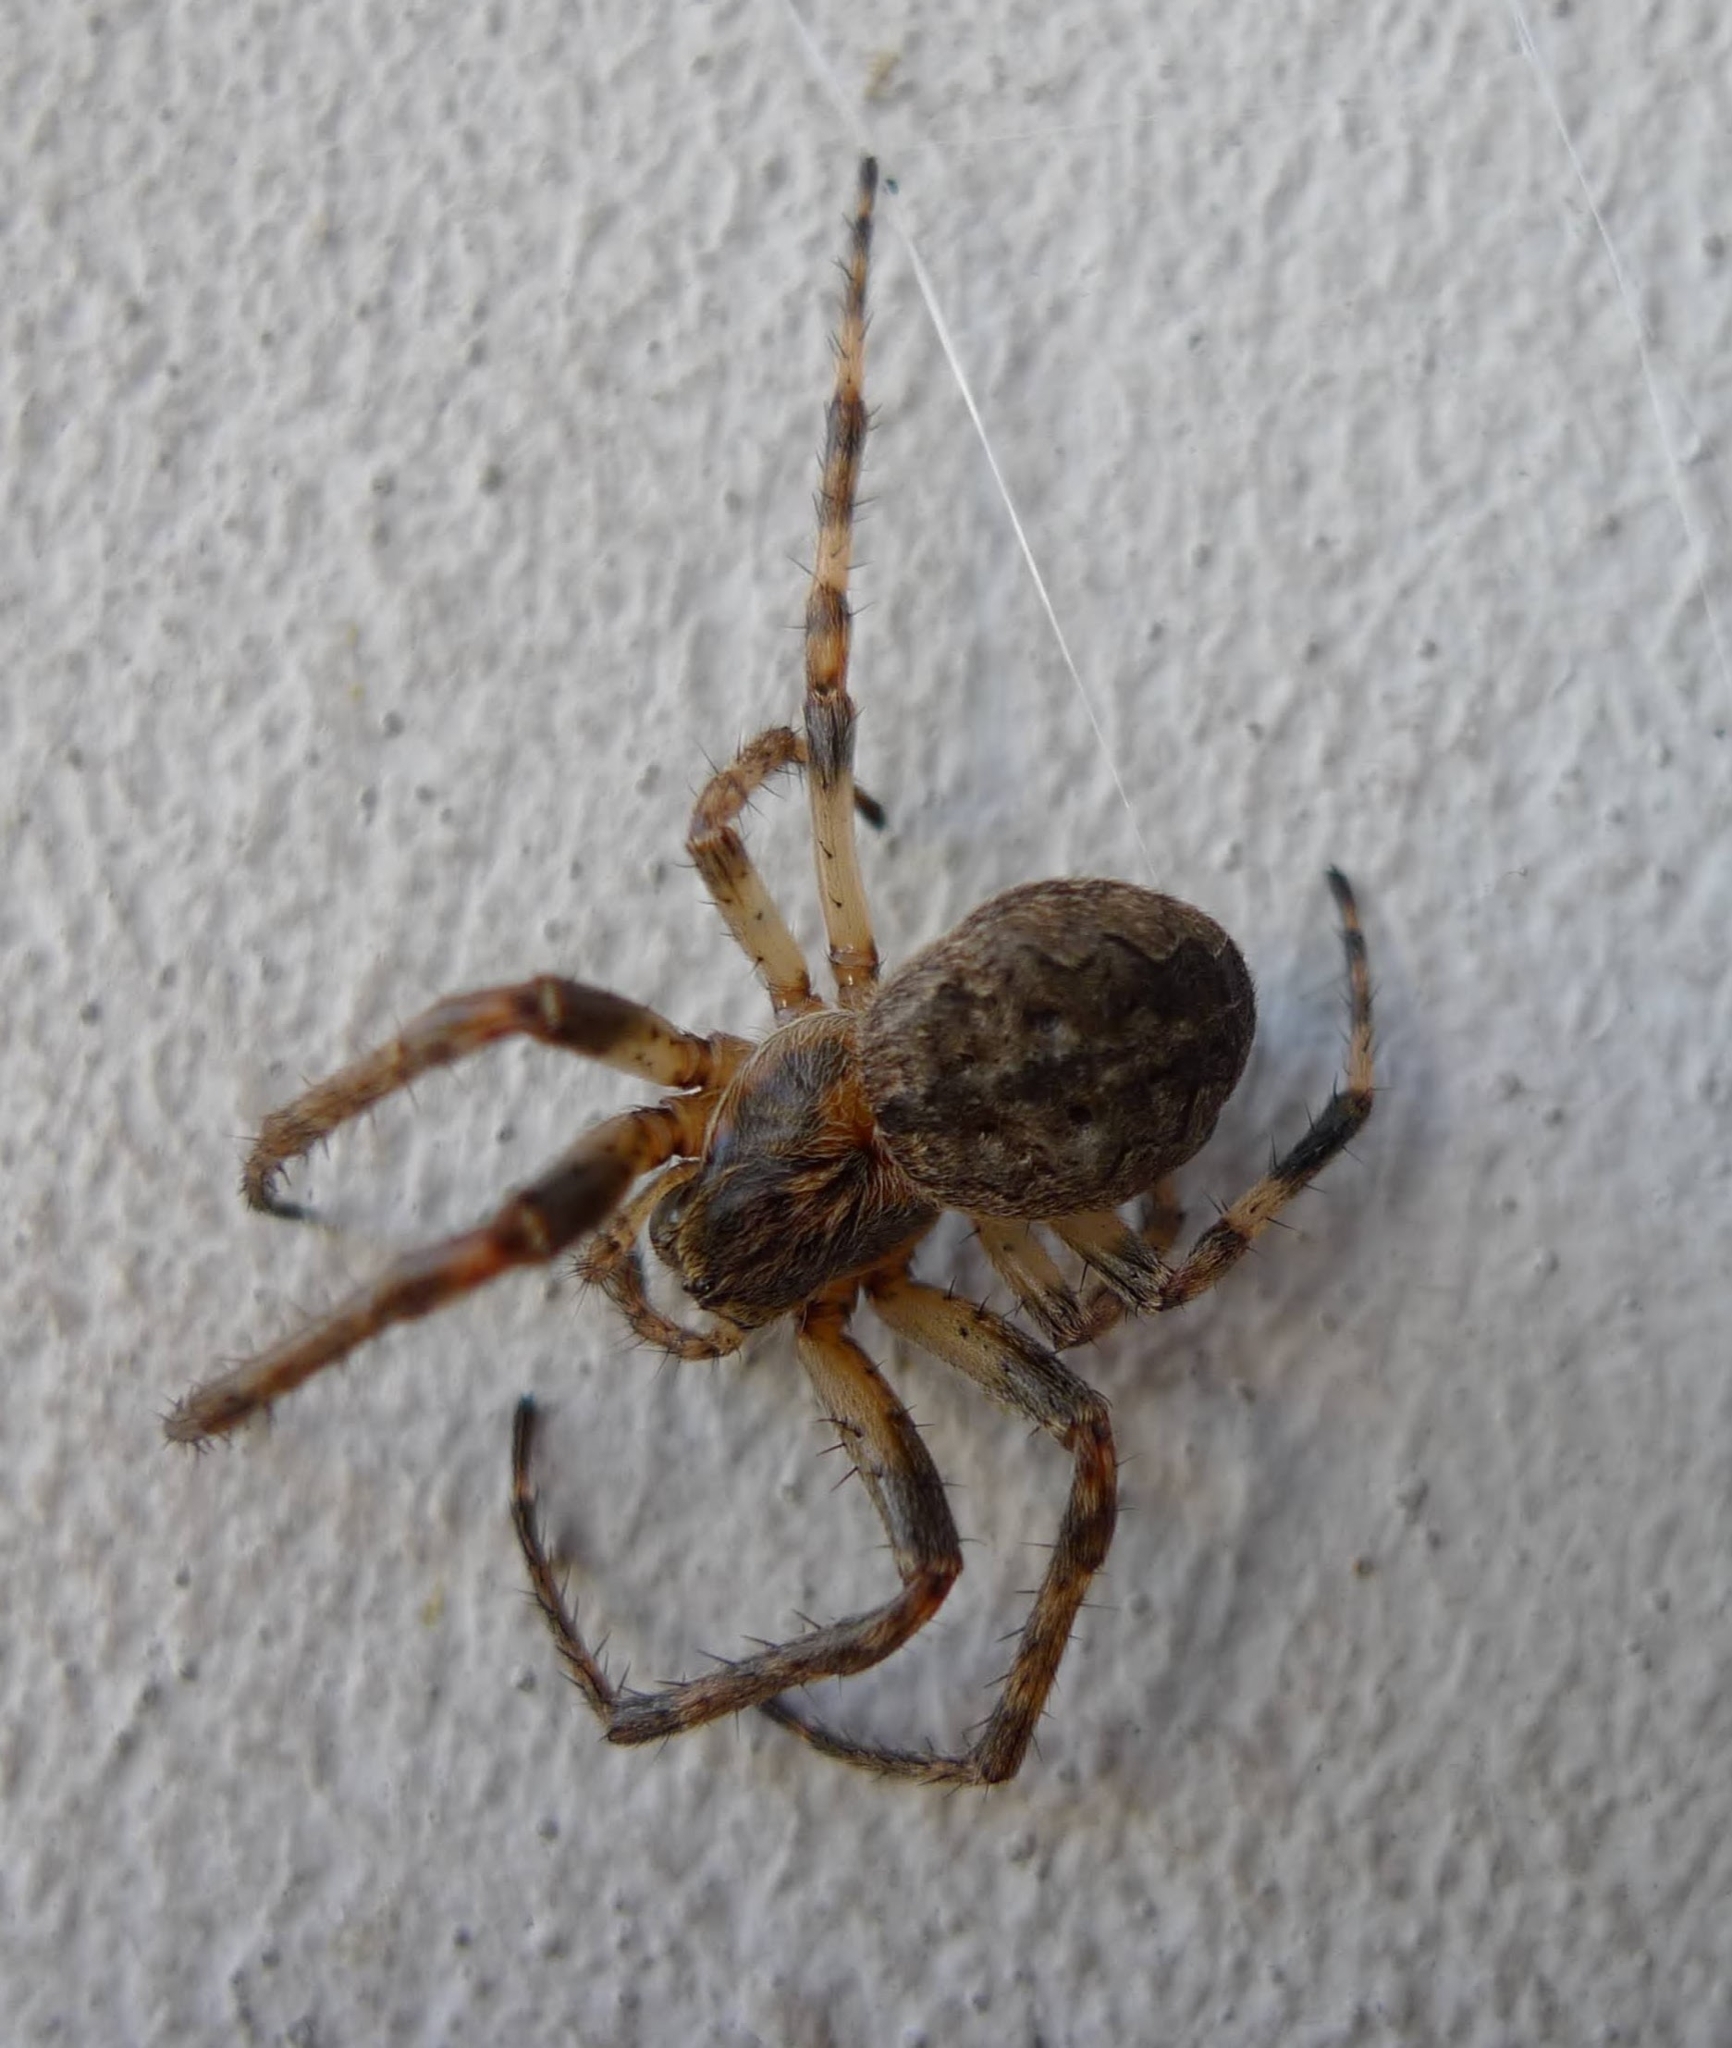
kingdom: Animalia
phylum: Arthropoda
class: Arachnida
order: Araneae
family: Araneidae
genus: Larinioides
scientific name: Larinioides ixobolus
